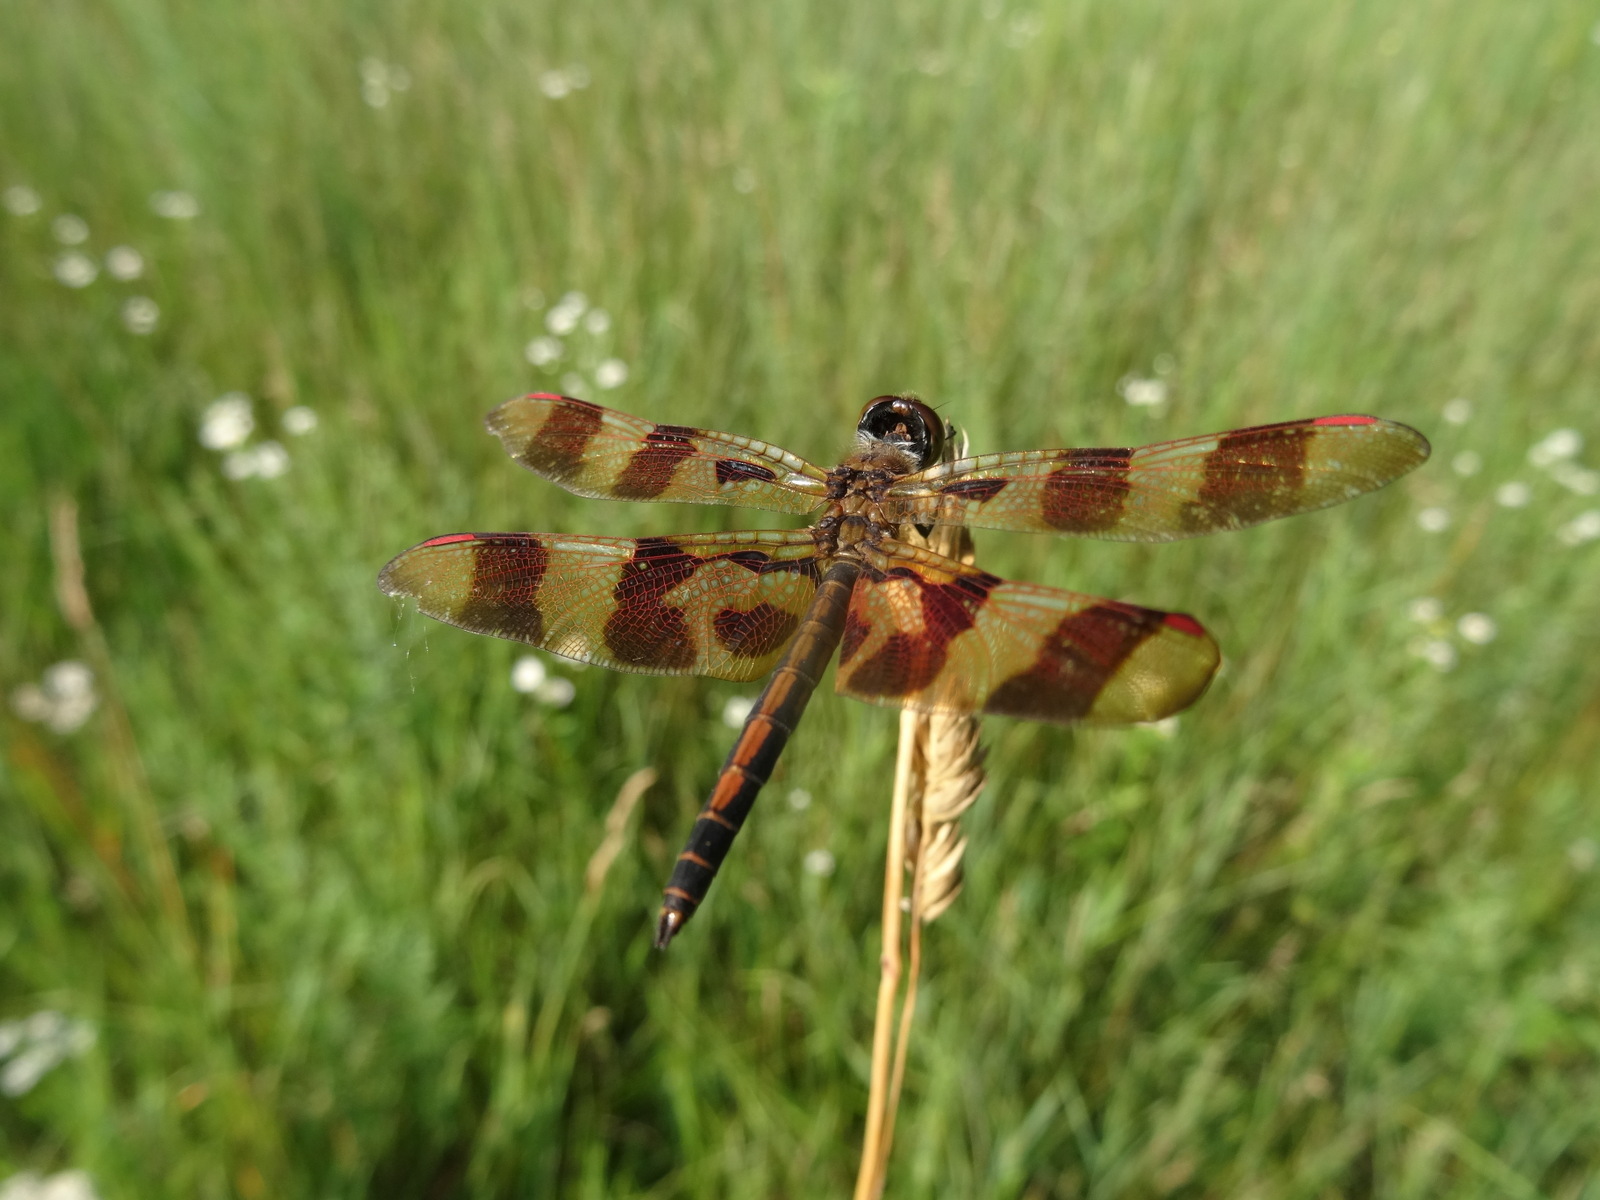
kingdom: Animalia
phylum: Arthropoda
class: Insecta
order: Odonata
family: Libellulidae
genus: Celithemis
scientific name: Celithemis eponina
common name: Halloween pennant
